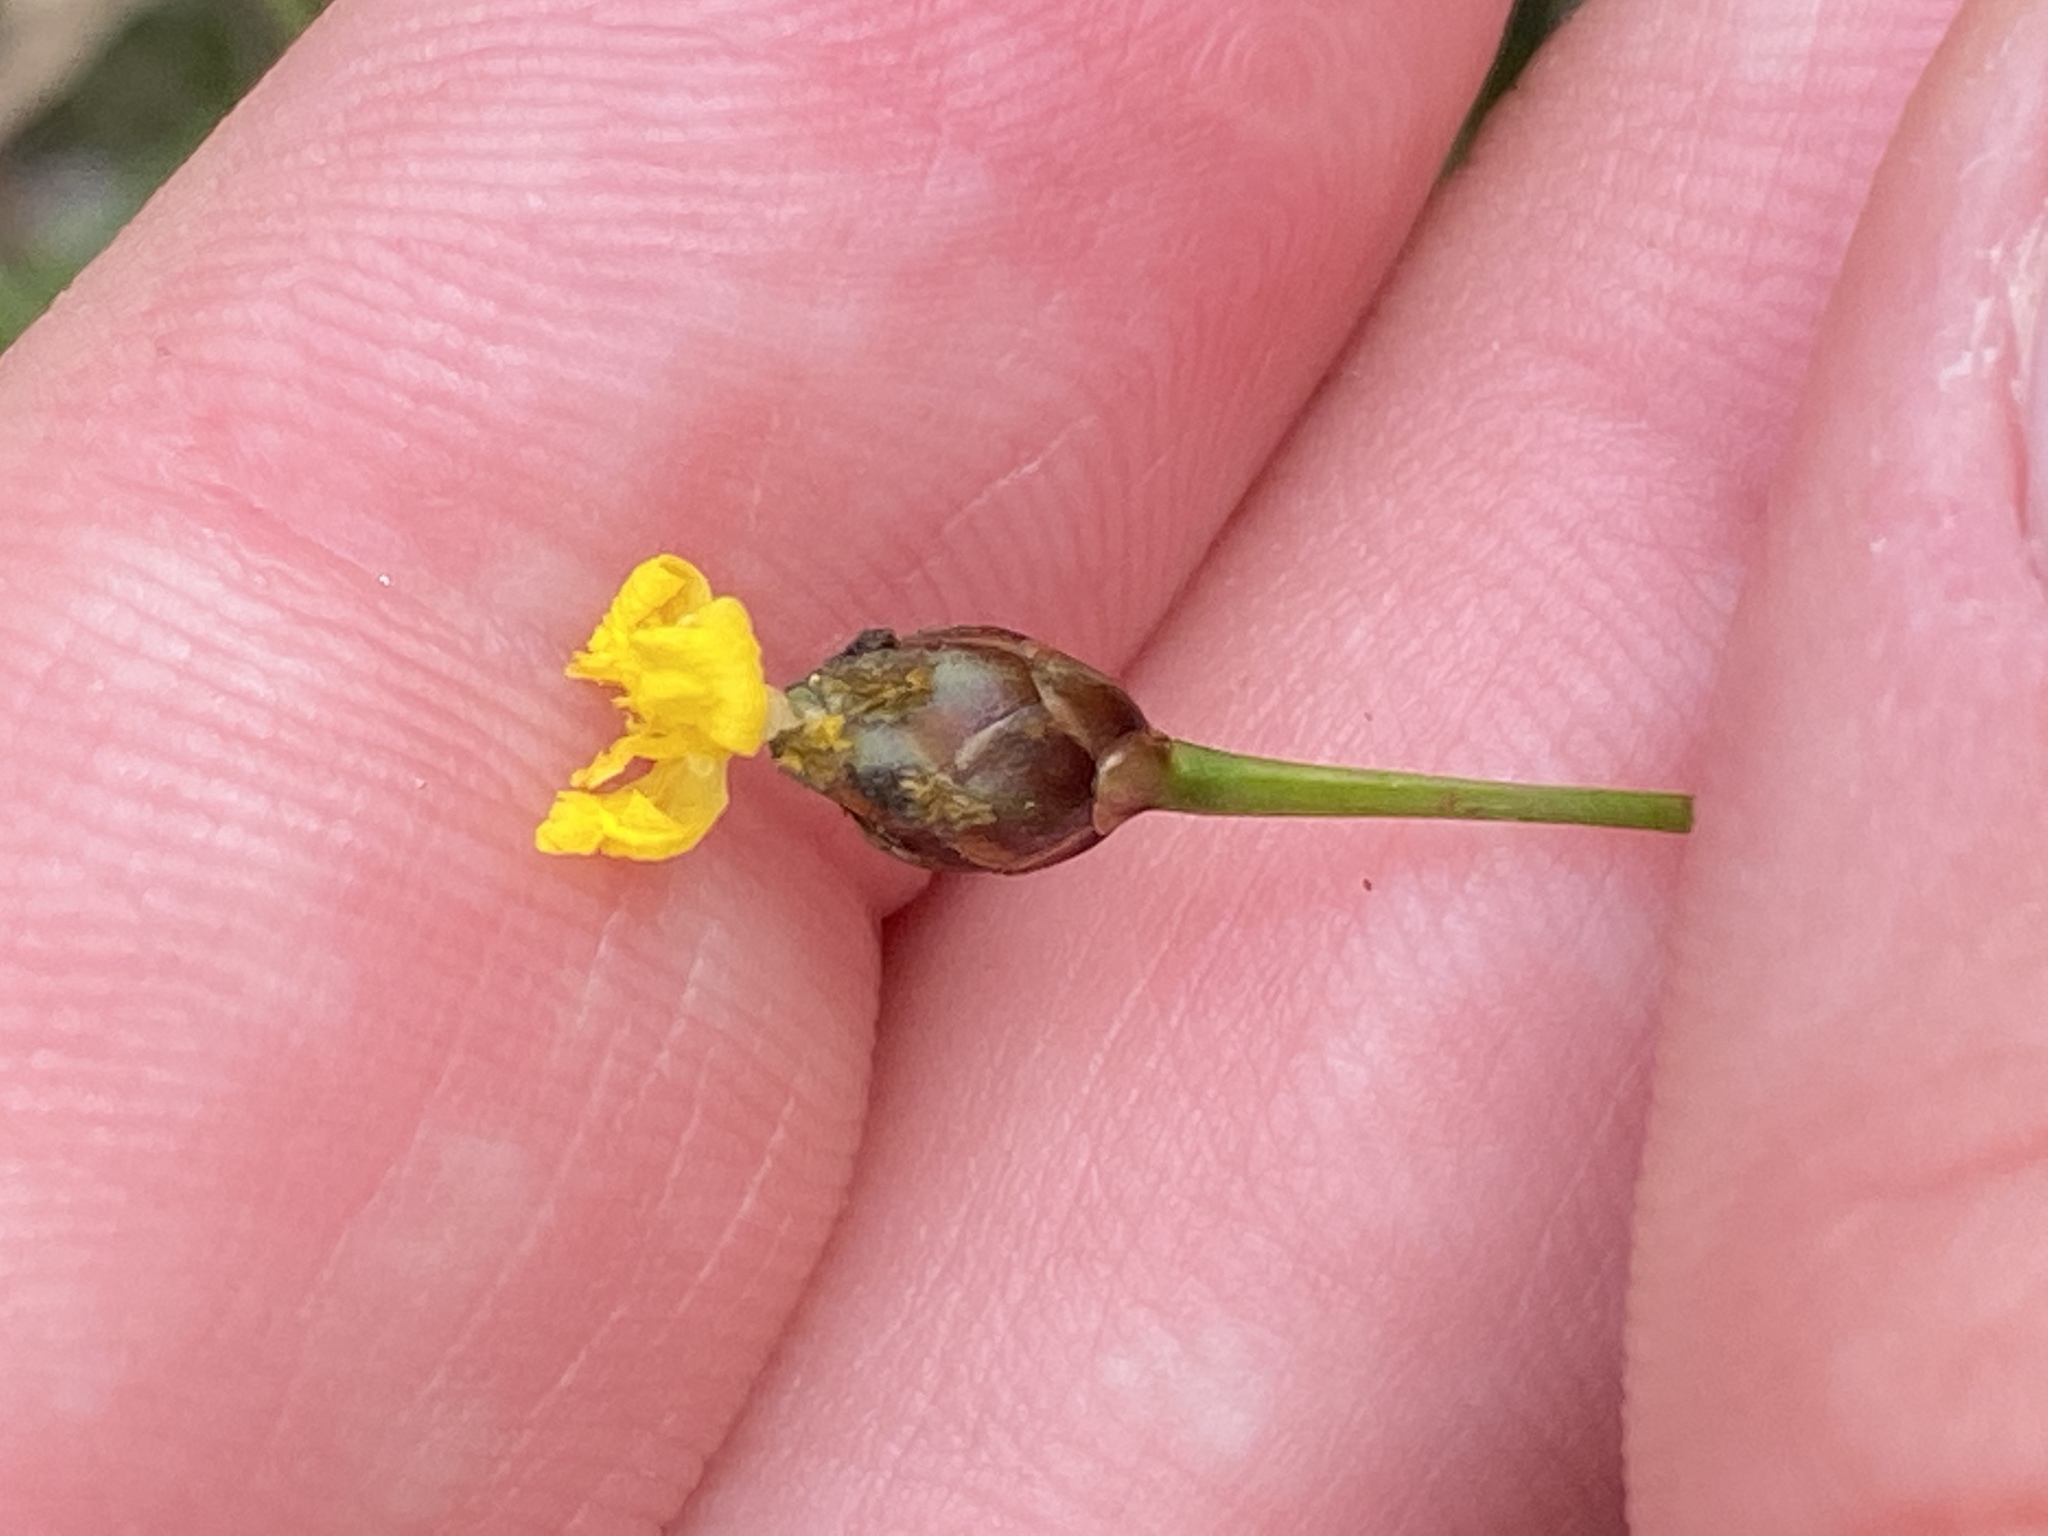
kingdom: Plantae
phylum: Tracheophyta
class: Liliopsida
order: Poales
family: Xyridaceae
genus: Xyris
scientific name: Xyris torta
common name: Common yelloweyed grass
